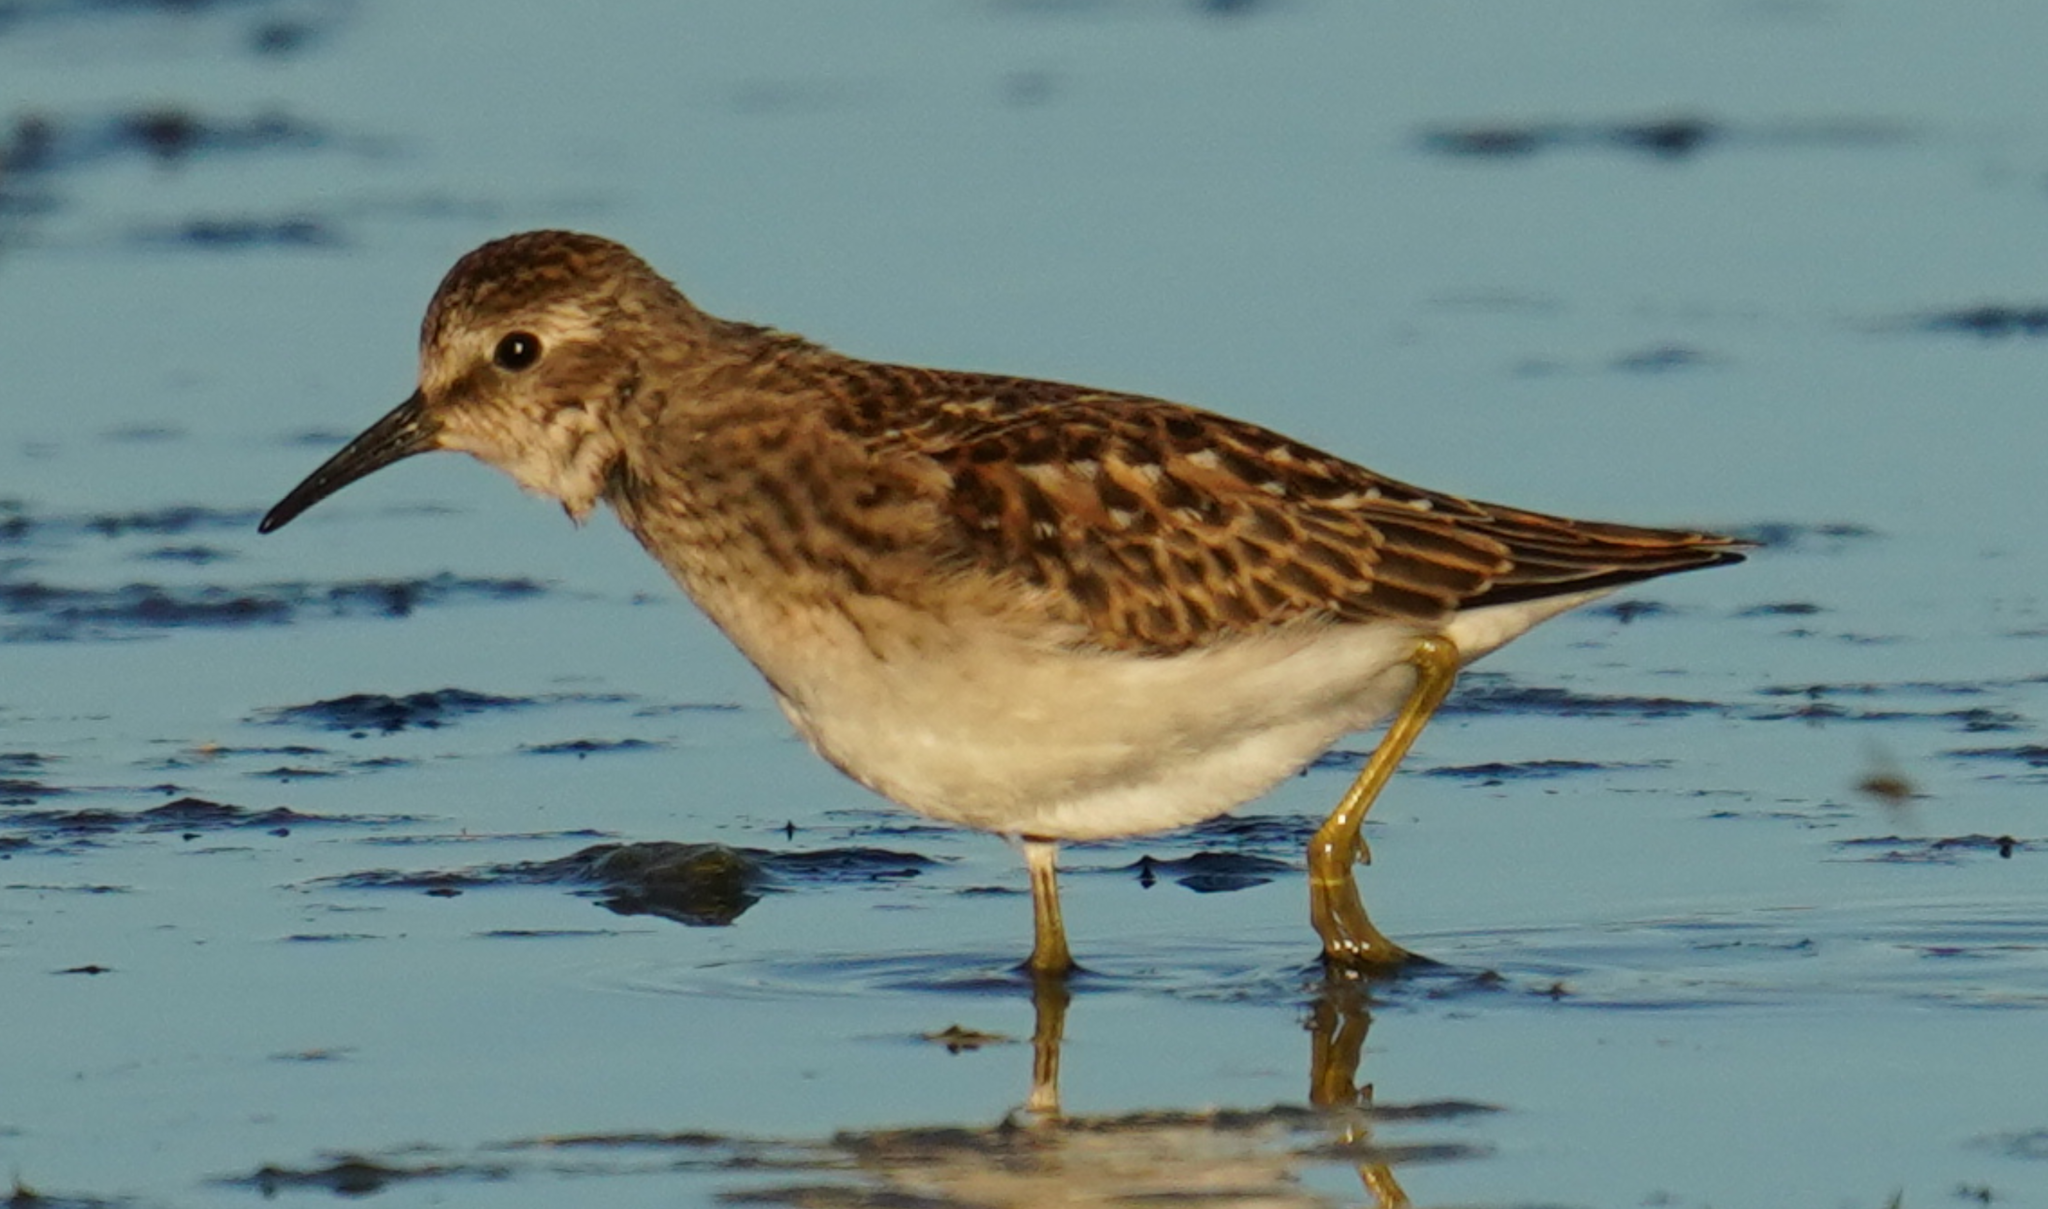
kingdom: Animalia
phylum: Chordata
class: Aves
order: Charadriiformes
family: Scolopacidae
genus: Calidris
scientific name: Calidris minutilla
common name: Least sandpiper
